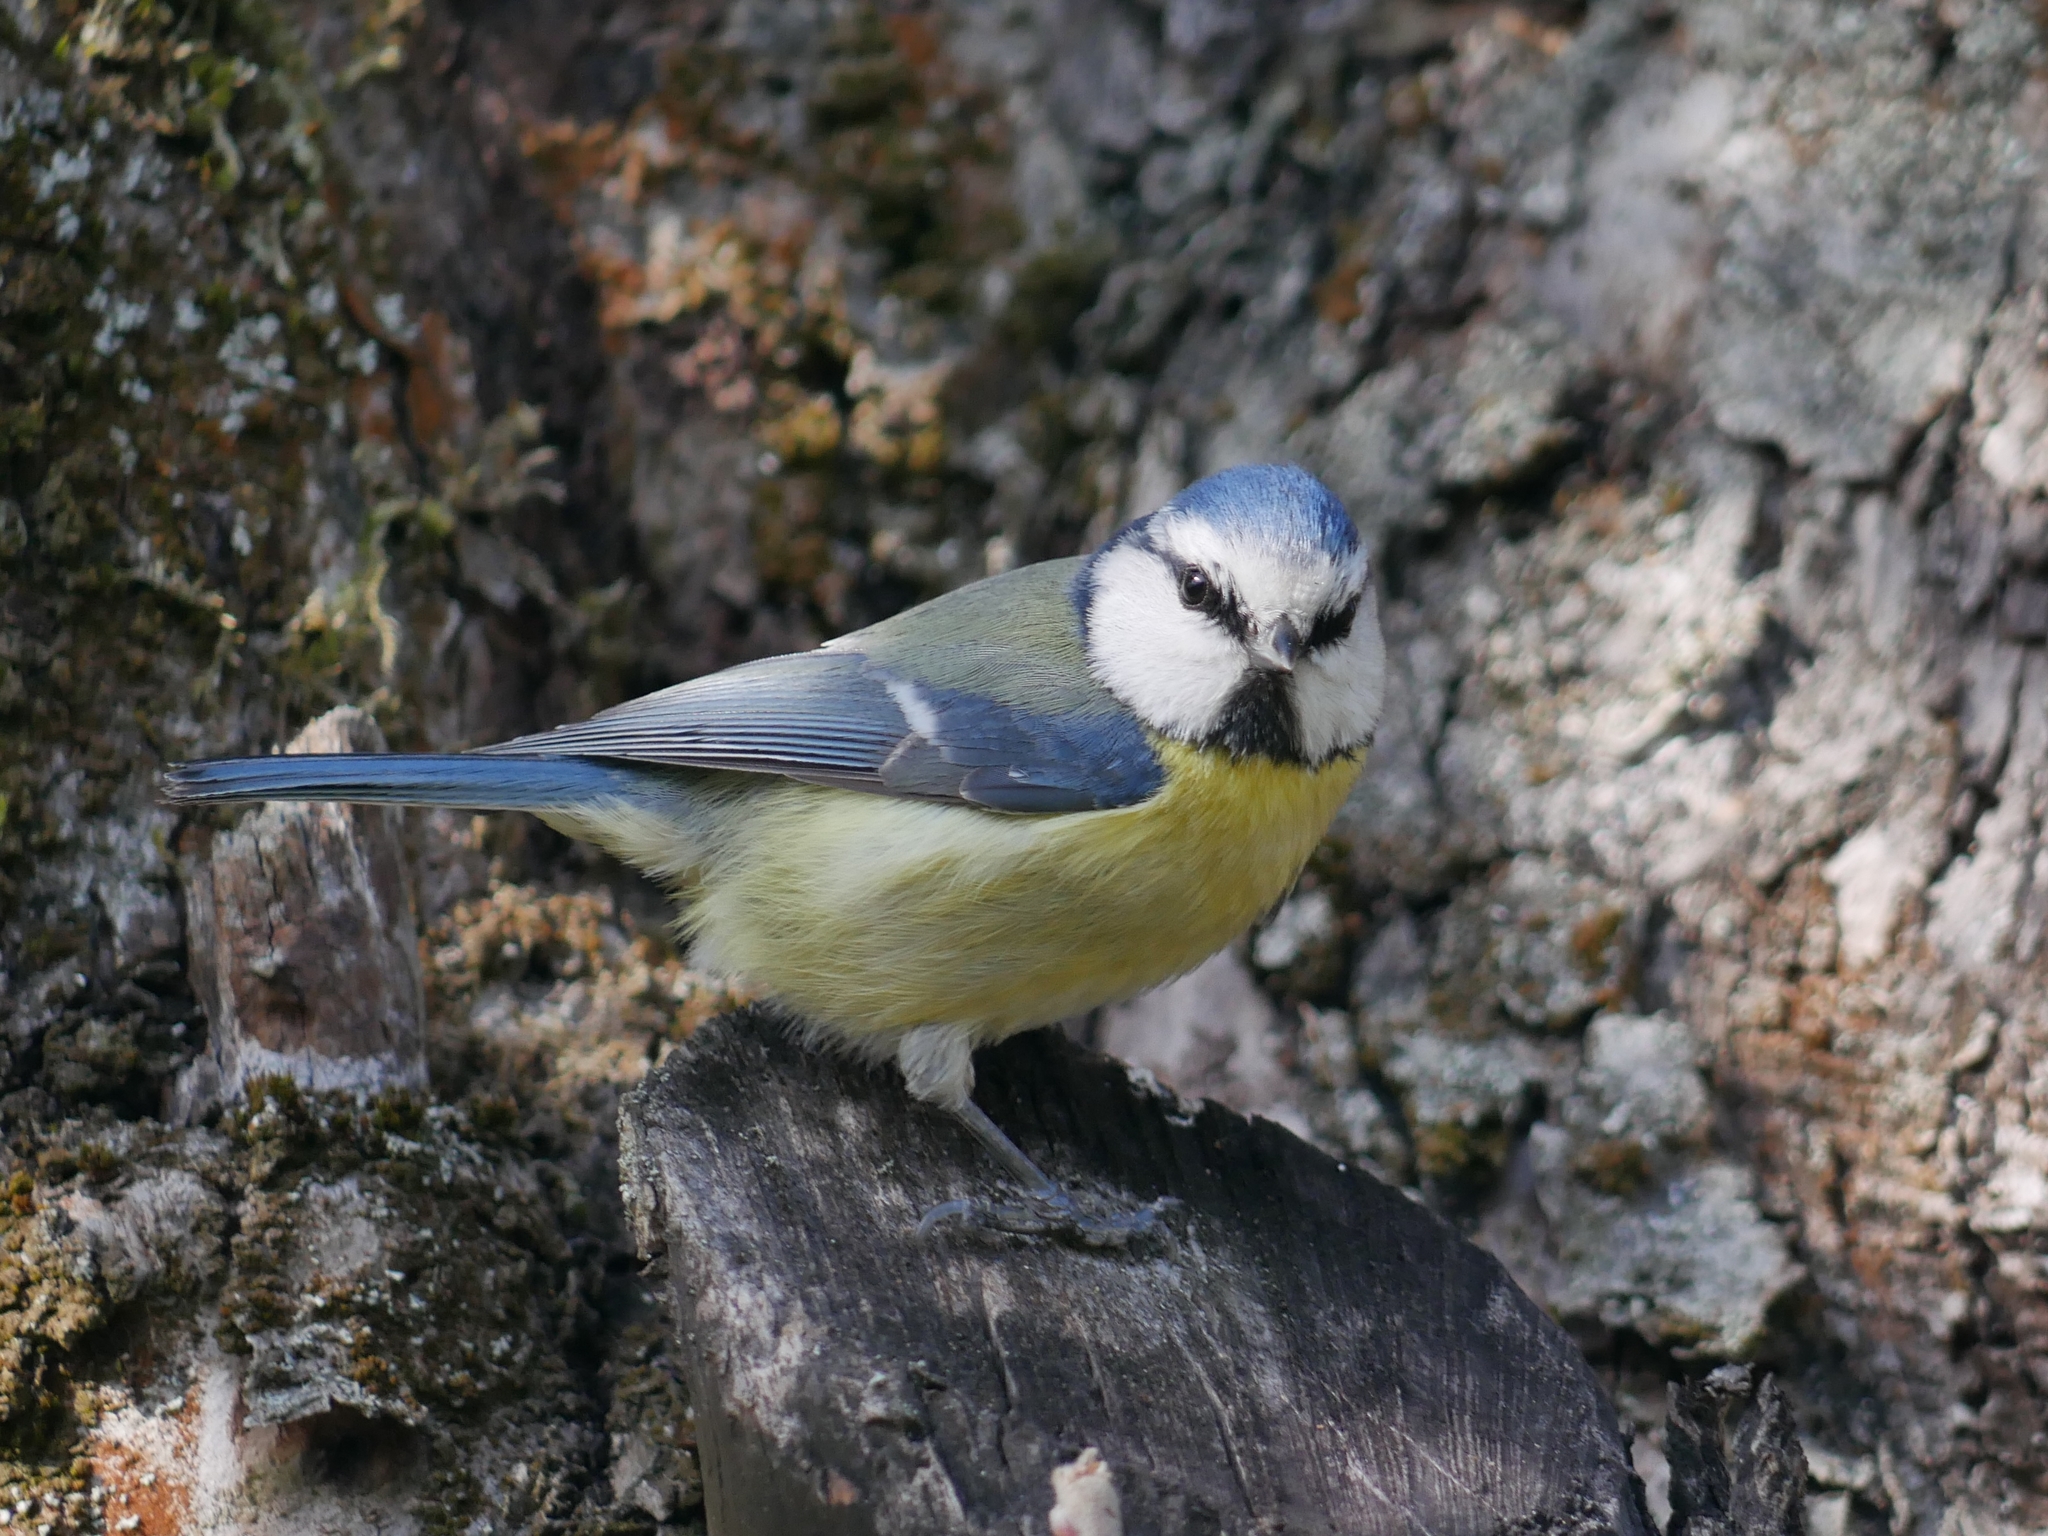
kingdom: Animalia
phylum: Chordata
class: Aves
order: Passeriformes
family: Paridae
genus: Cyanistes
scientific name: Cyanistes caeruleus
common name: Eurasian blue tit
